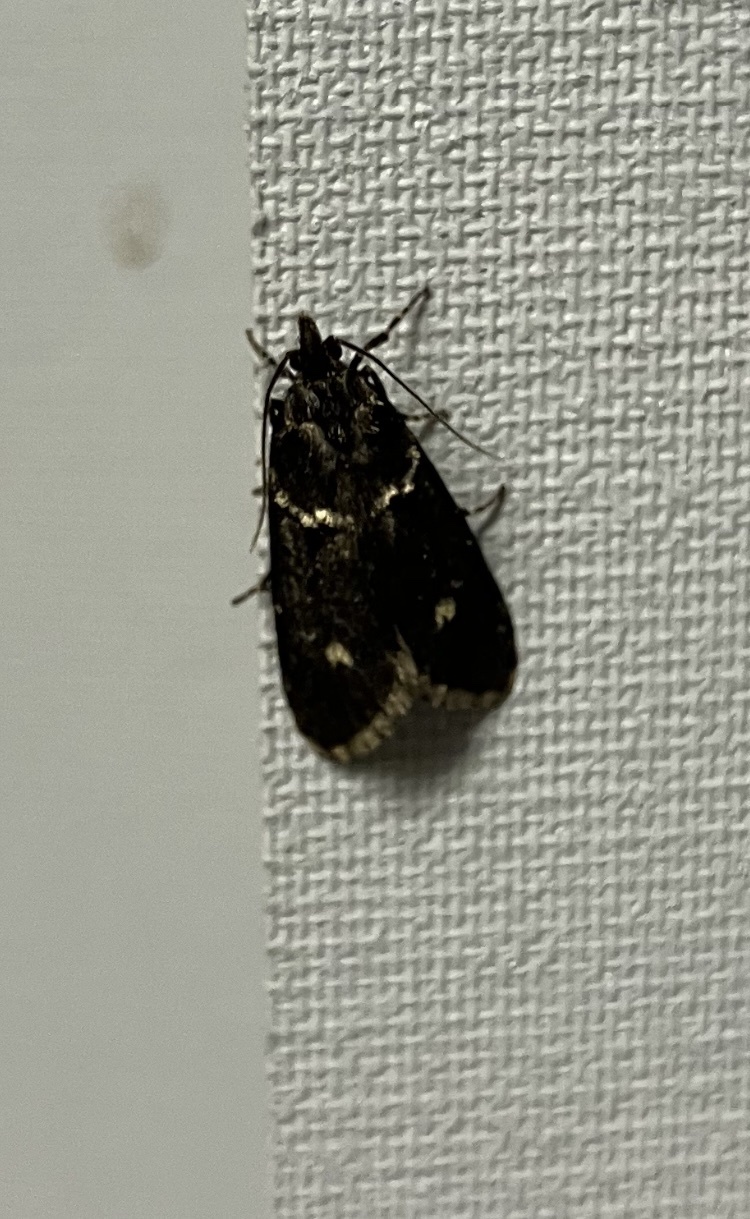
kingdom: Animalia
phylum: Arthropoda
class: Insecta
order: Lepidoptera
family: Lypusidae
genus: Diurnea
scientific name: Diurnea fagella
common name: March tubic
